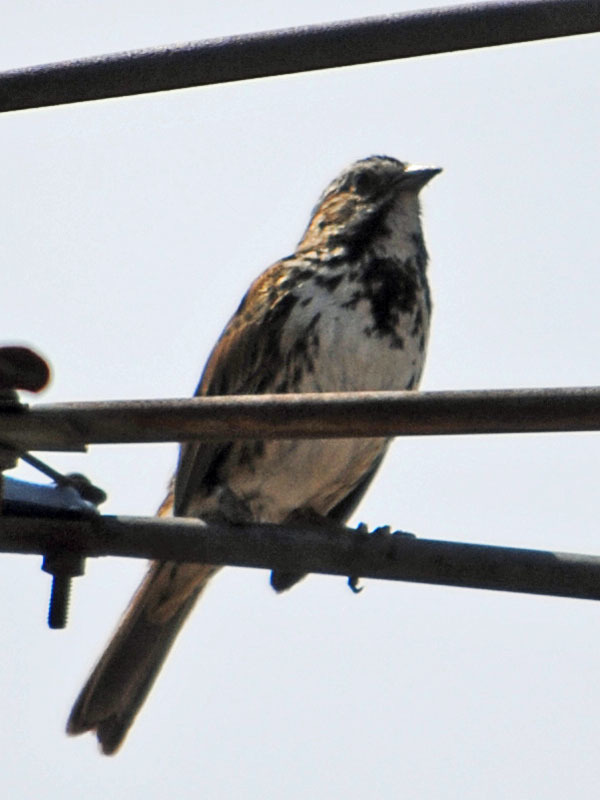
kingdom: Animalia
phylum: Chordata
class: Aves
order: Passeriformes
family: Passerellidae
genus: Melospiza
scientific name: Melospiza melodia
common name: Song sparrow
